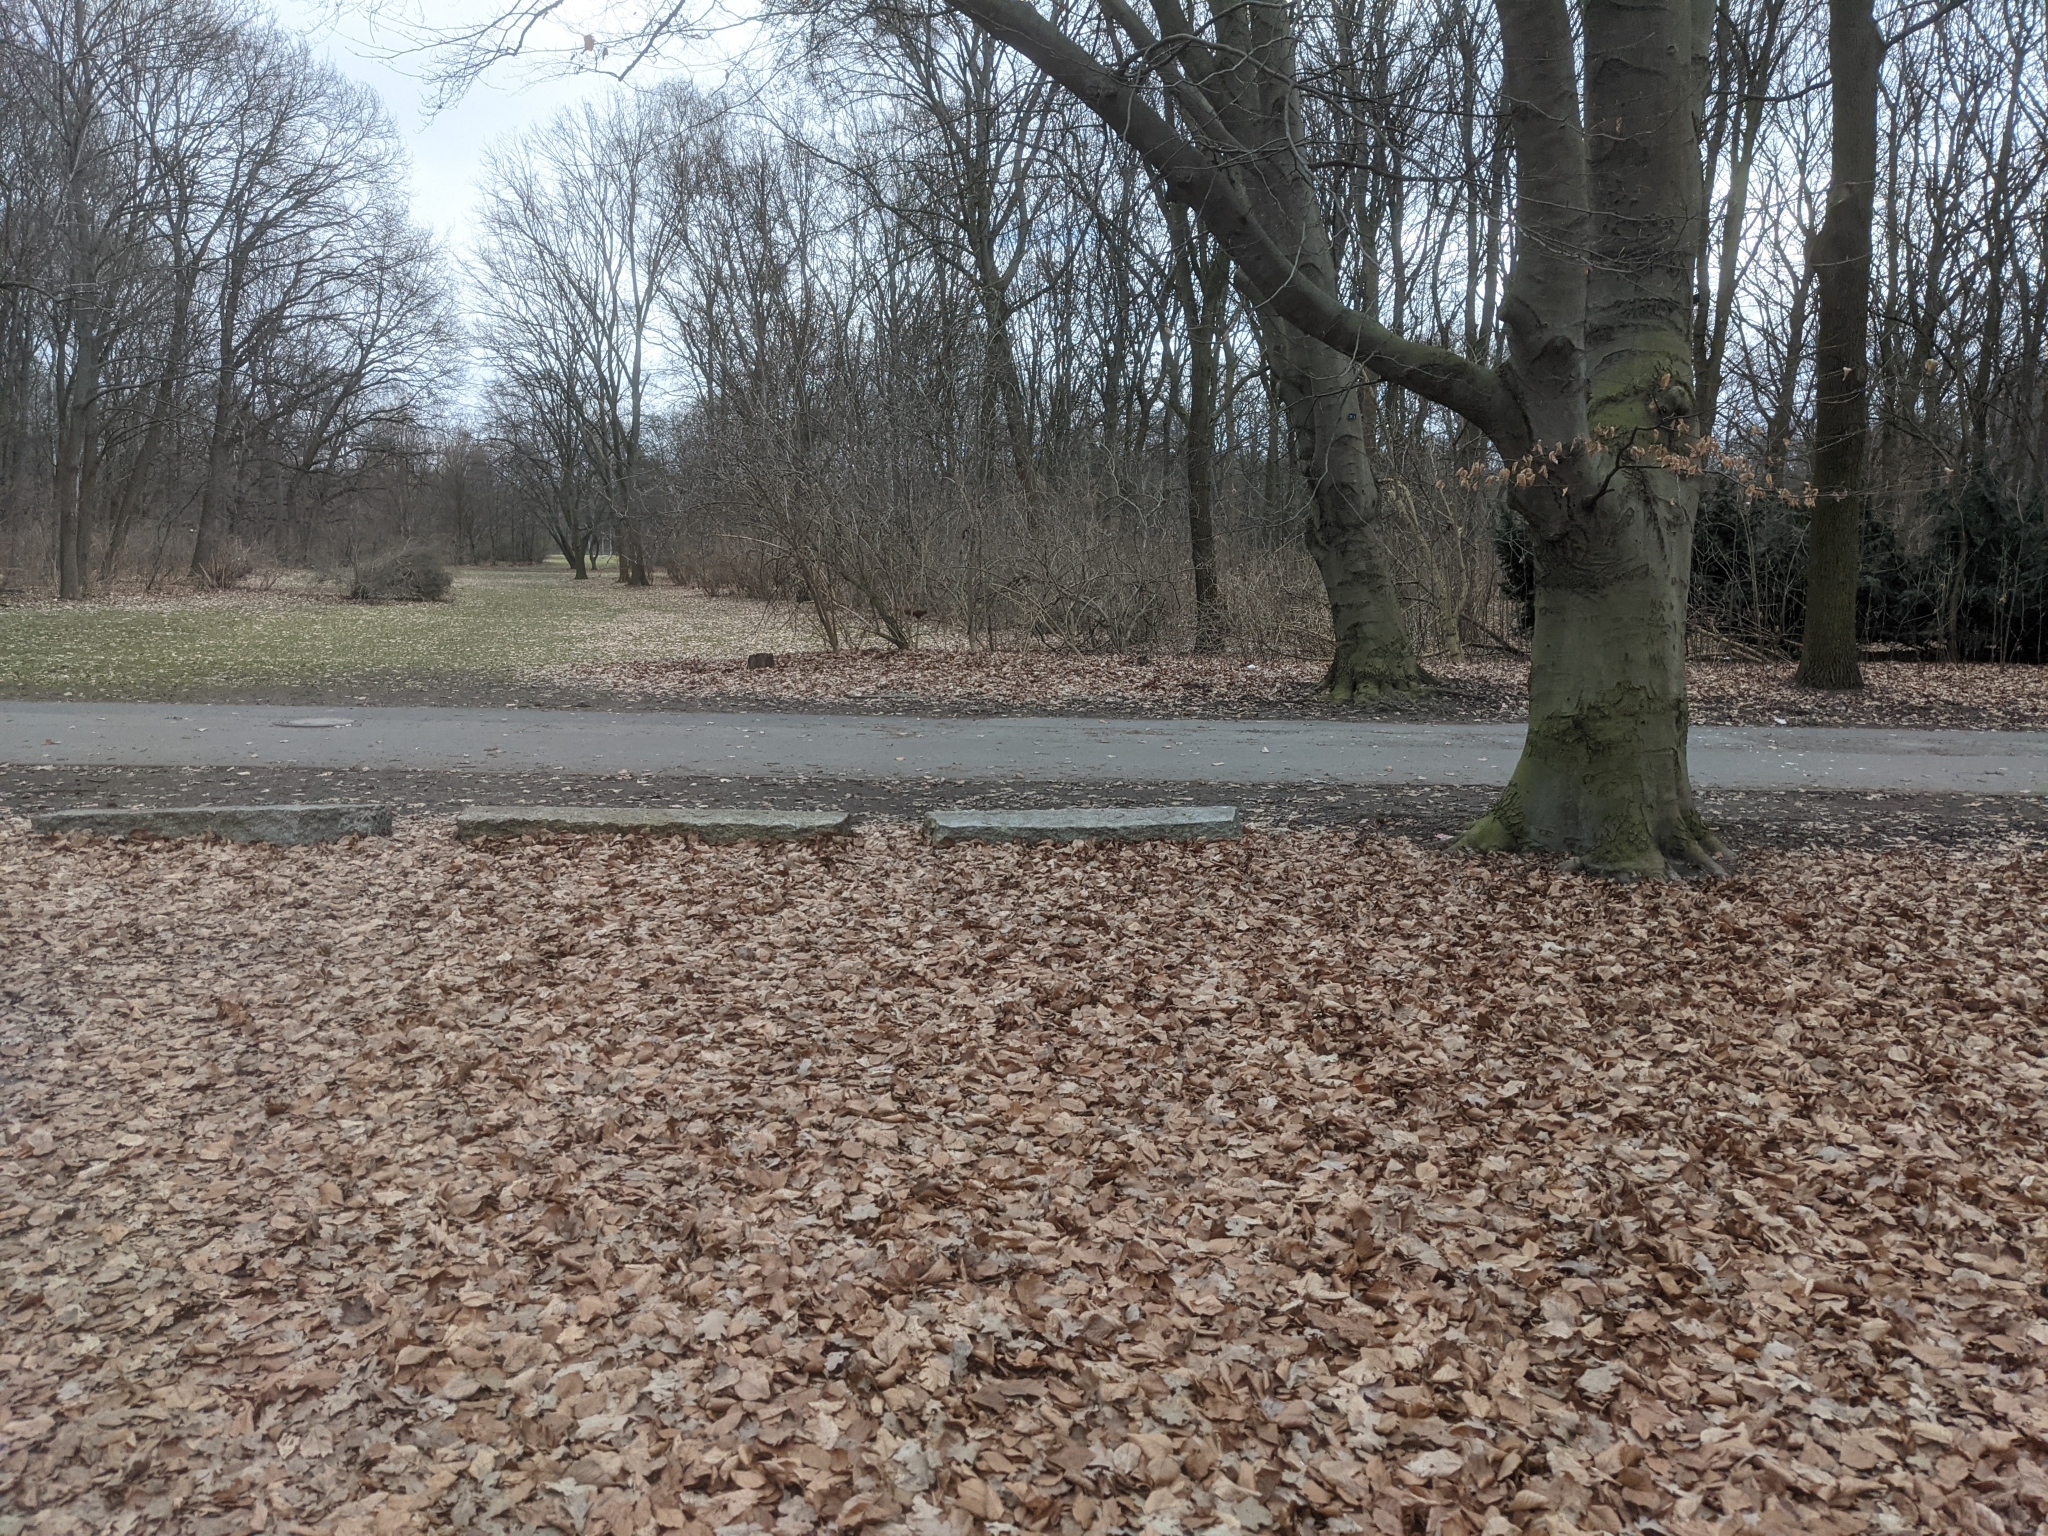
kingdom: Animalia
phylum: Chordata
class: Mammalia
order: Rodentia
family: Sciuridae
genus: Sciurus
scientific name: Sciurus vulgaris
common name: Eurasian red squirrel
